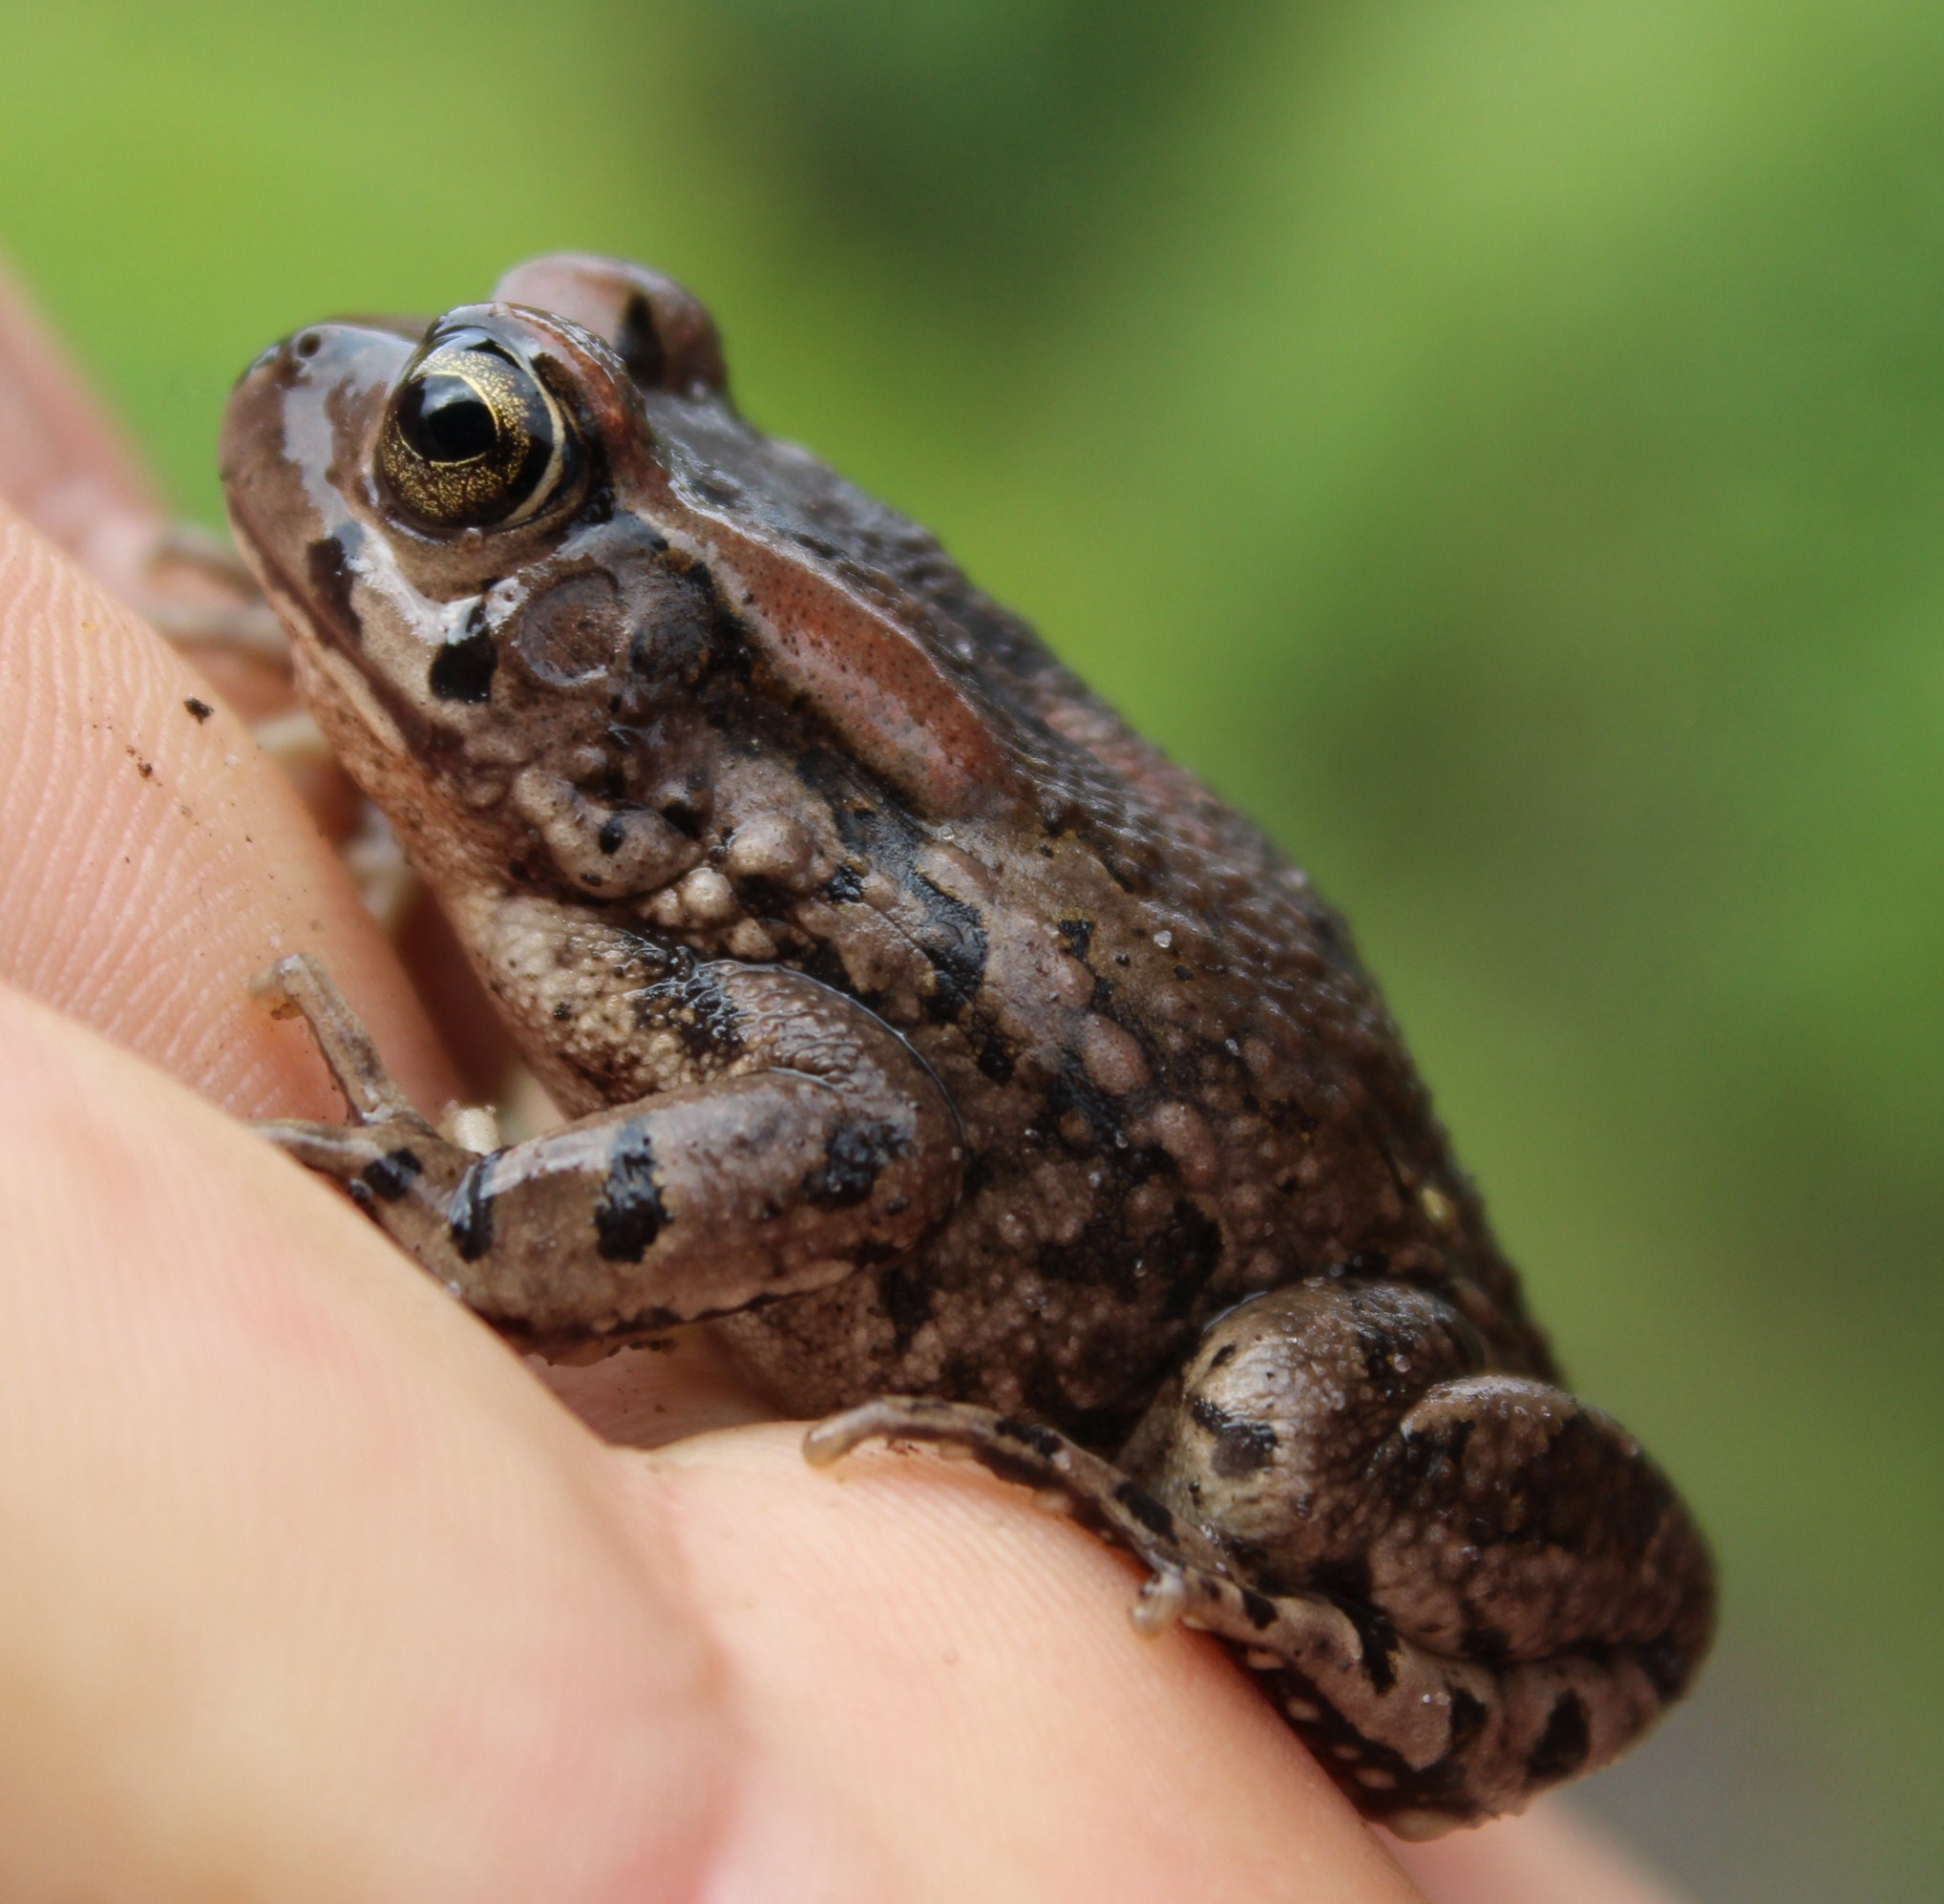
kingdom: Animalia
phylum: Chordata
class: Amphibia
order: Anura
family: Bufonidae
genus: Sclerophrys
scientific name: Sclerophrys capensis
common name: Ranger’s toad
